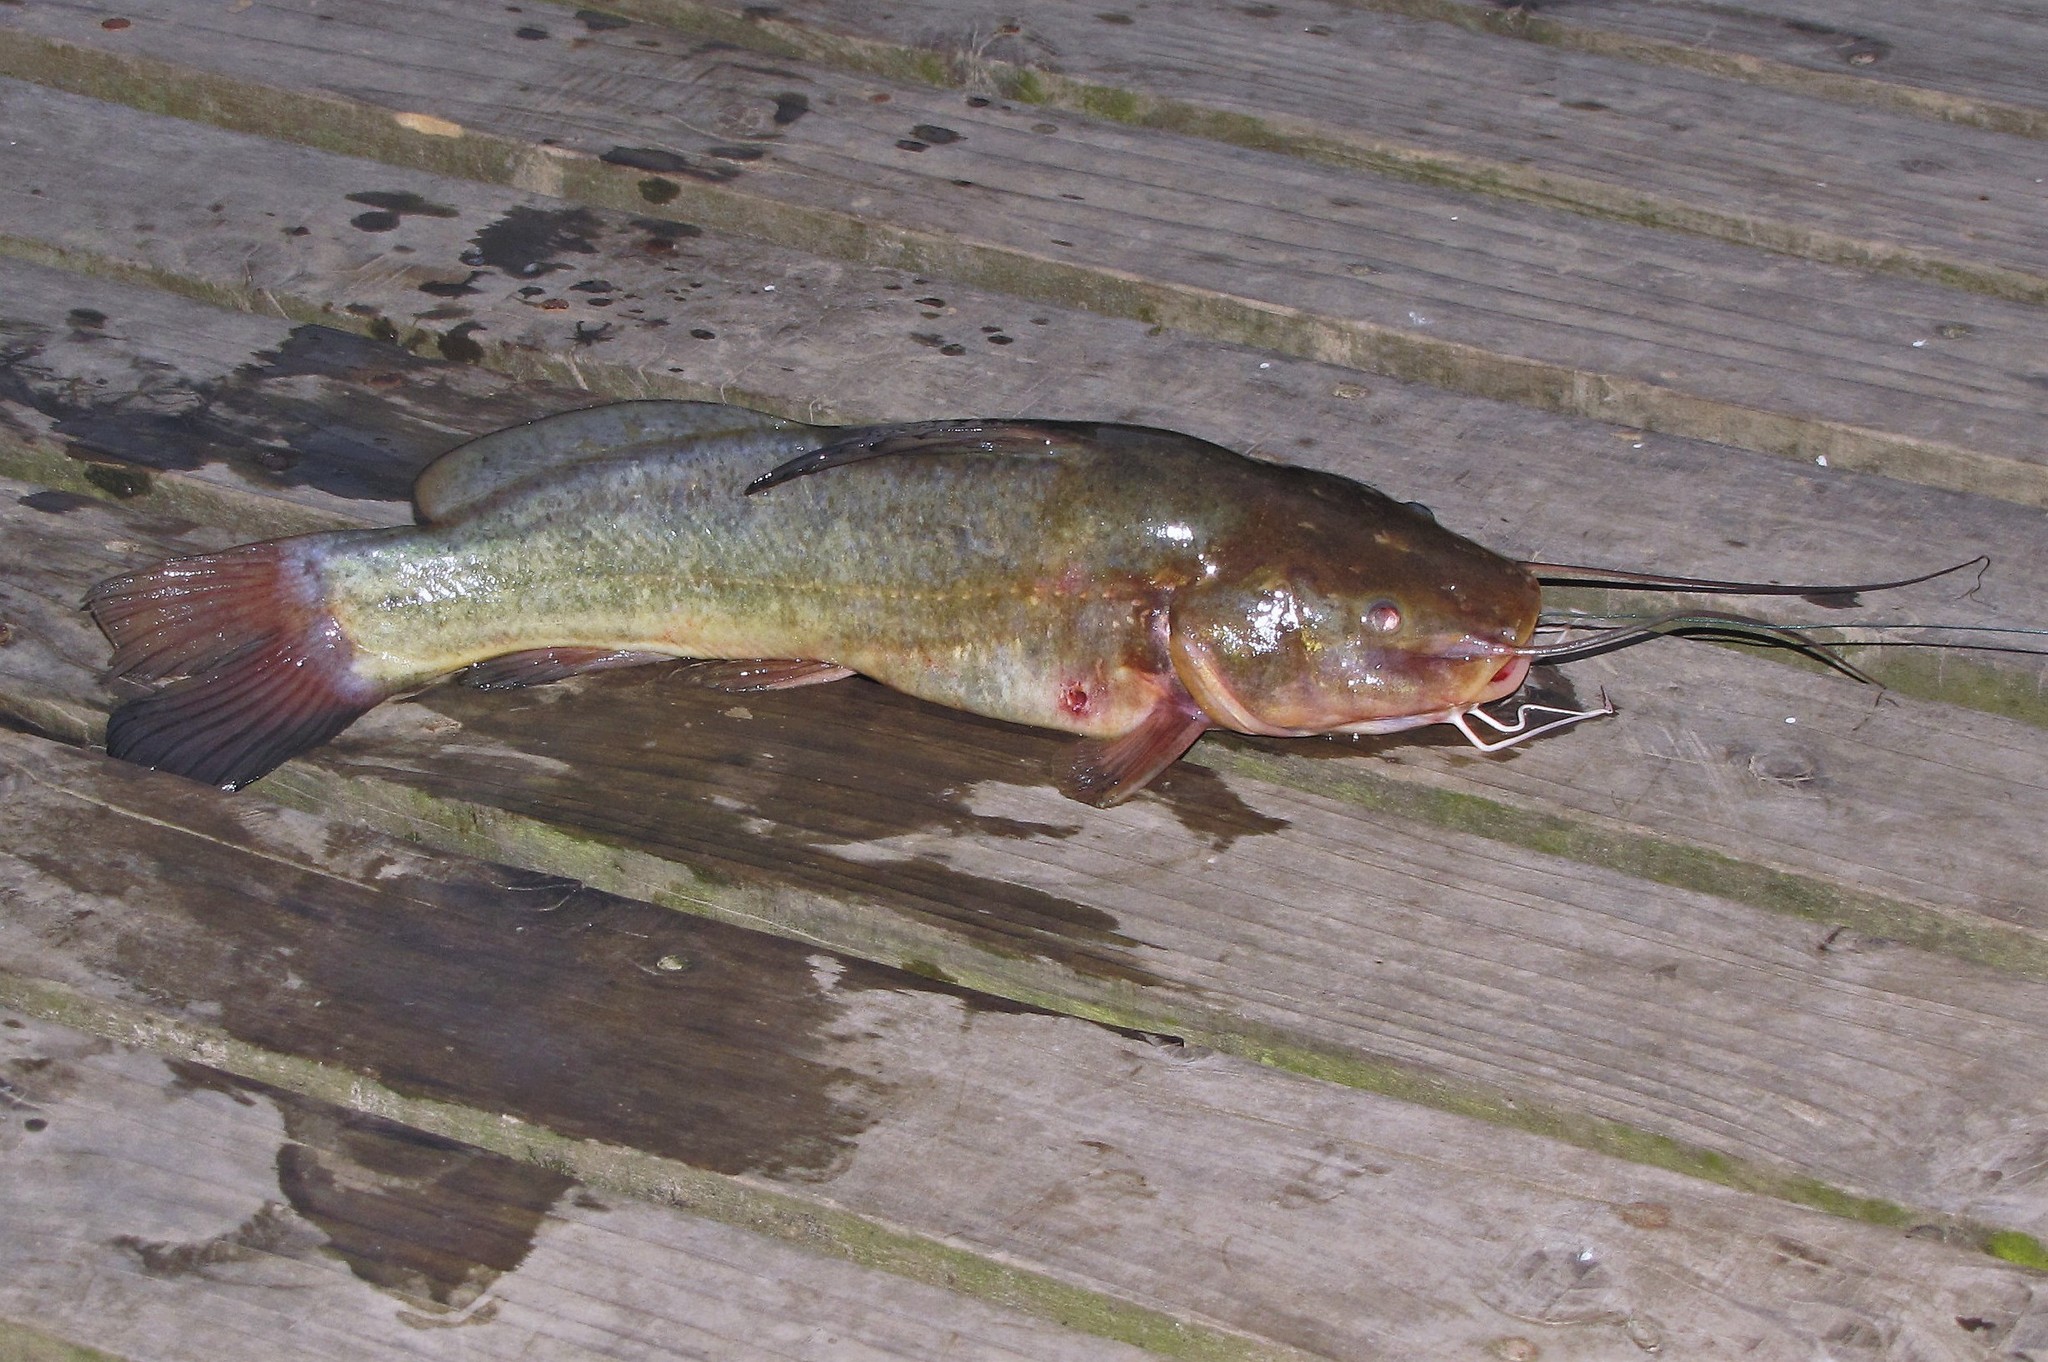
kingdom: Animalia
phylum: Chordata
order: Siluriformes
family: Heptapteridae
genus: Rhamdia
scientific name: Rhamdia quelen
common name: Catfish
